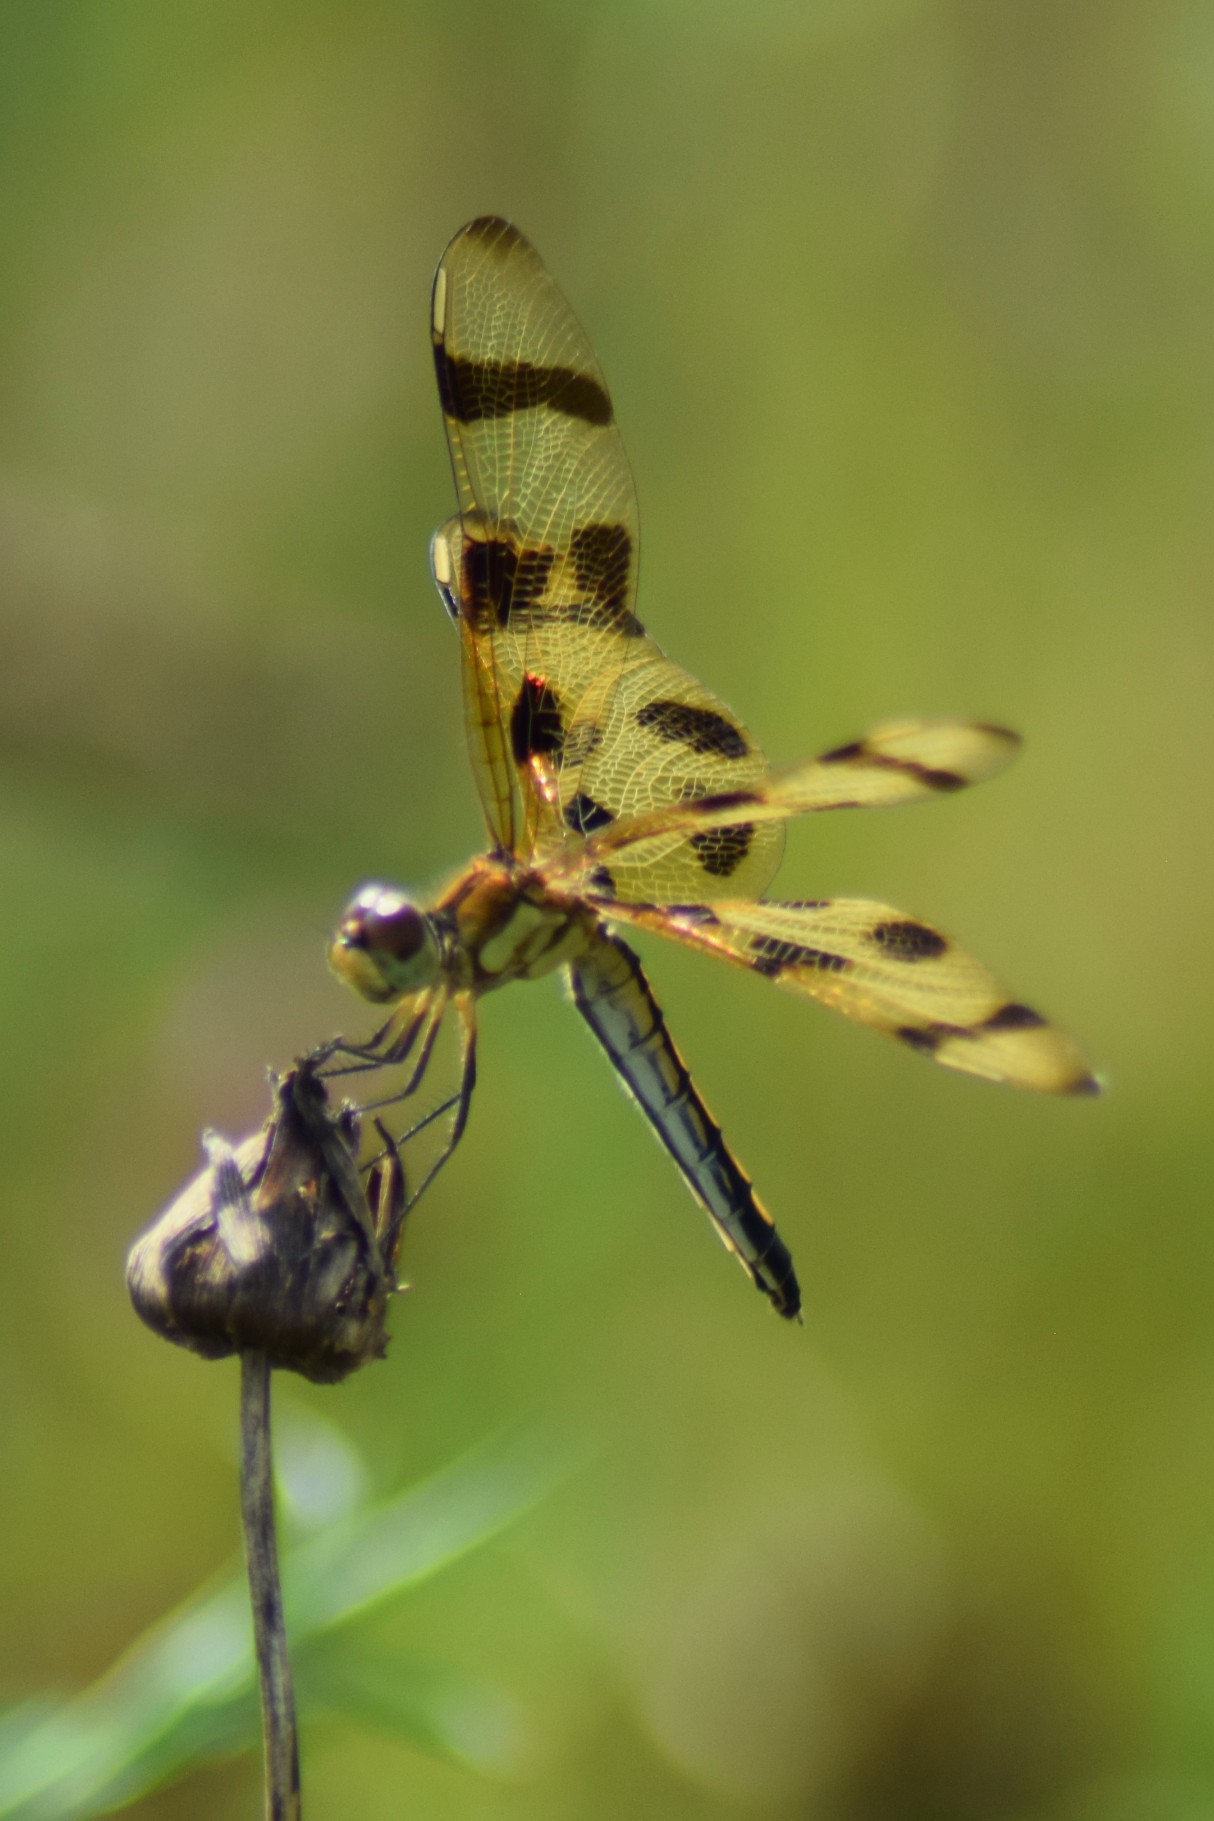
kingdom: Animalia
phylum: Arthropoda
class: Insecta
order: Odonata
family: Libellulidae
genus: Celithemis
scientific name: Celithemis eponina
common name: Halloween pennant
